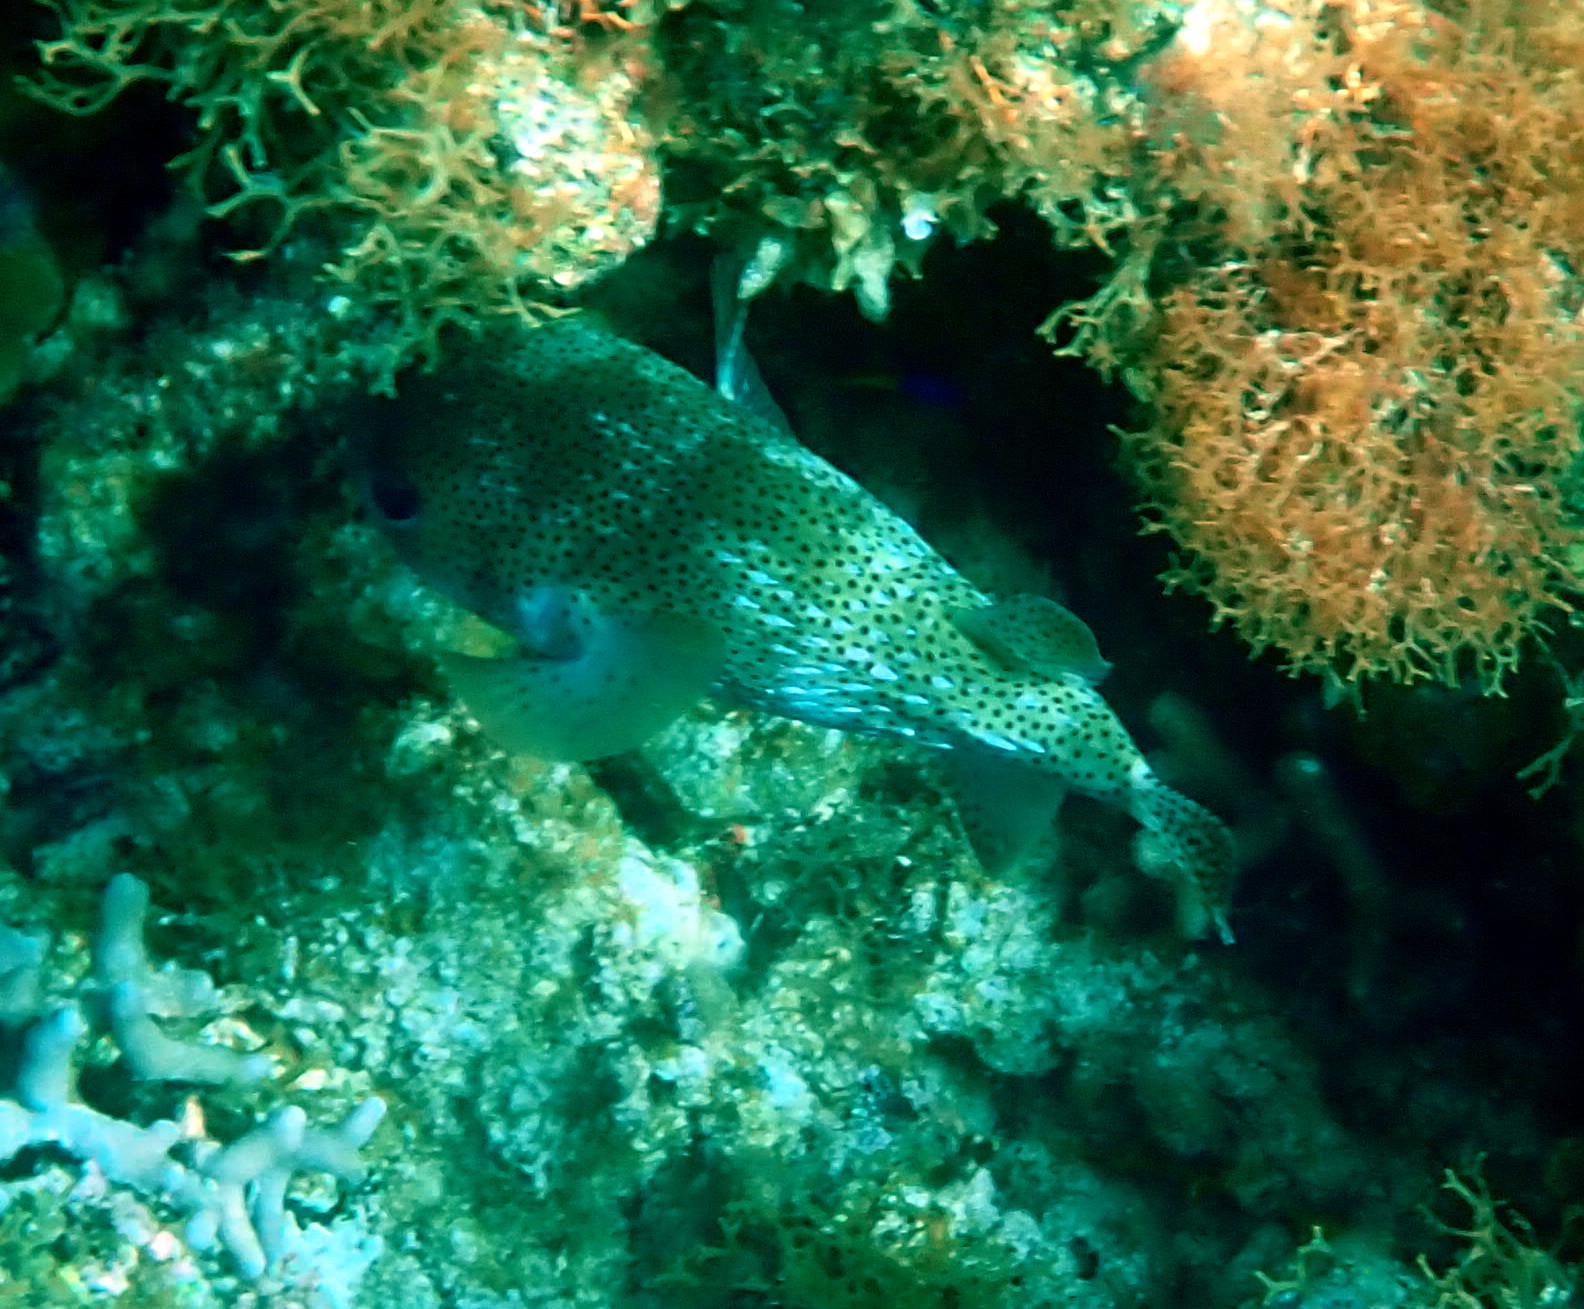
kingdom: Animalia
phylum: Chordata
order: Tetraodontiformes
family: Diodontidae
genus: Diodon
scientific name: Diodon hystrix
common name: Giant porcupinefish
